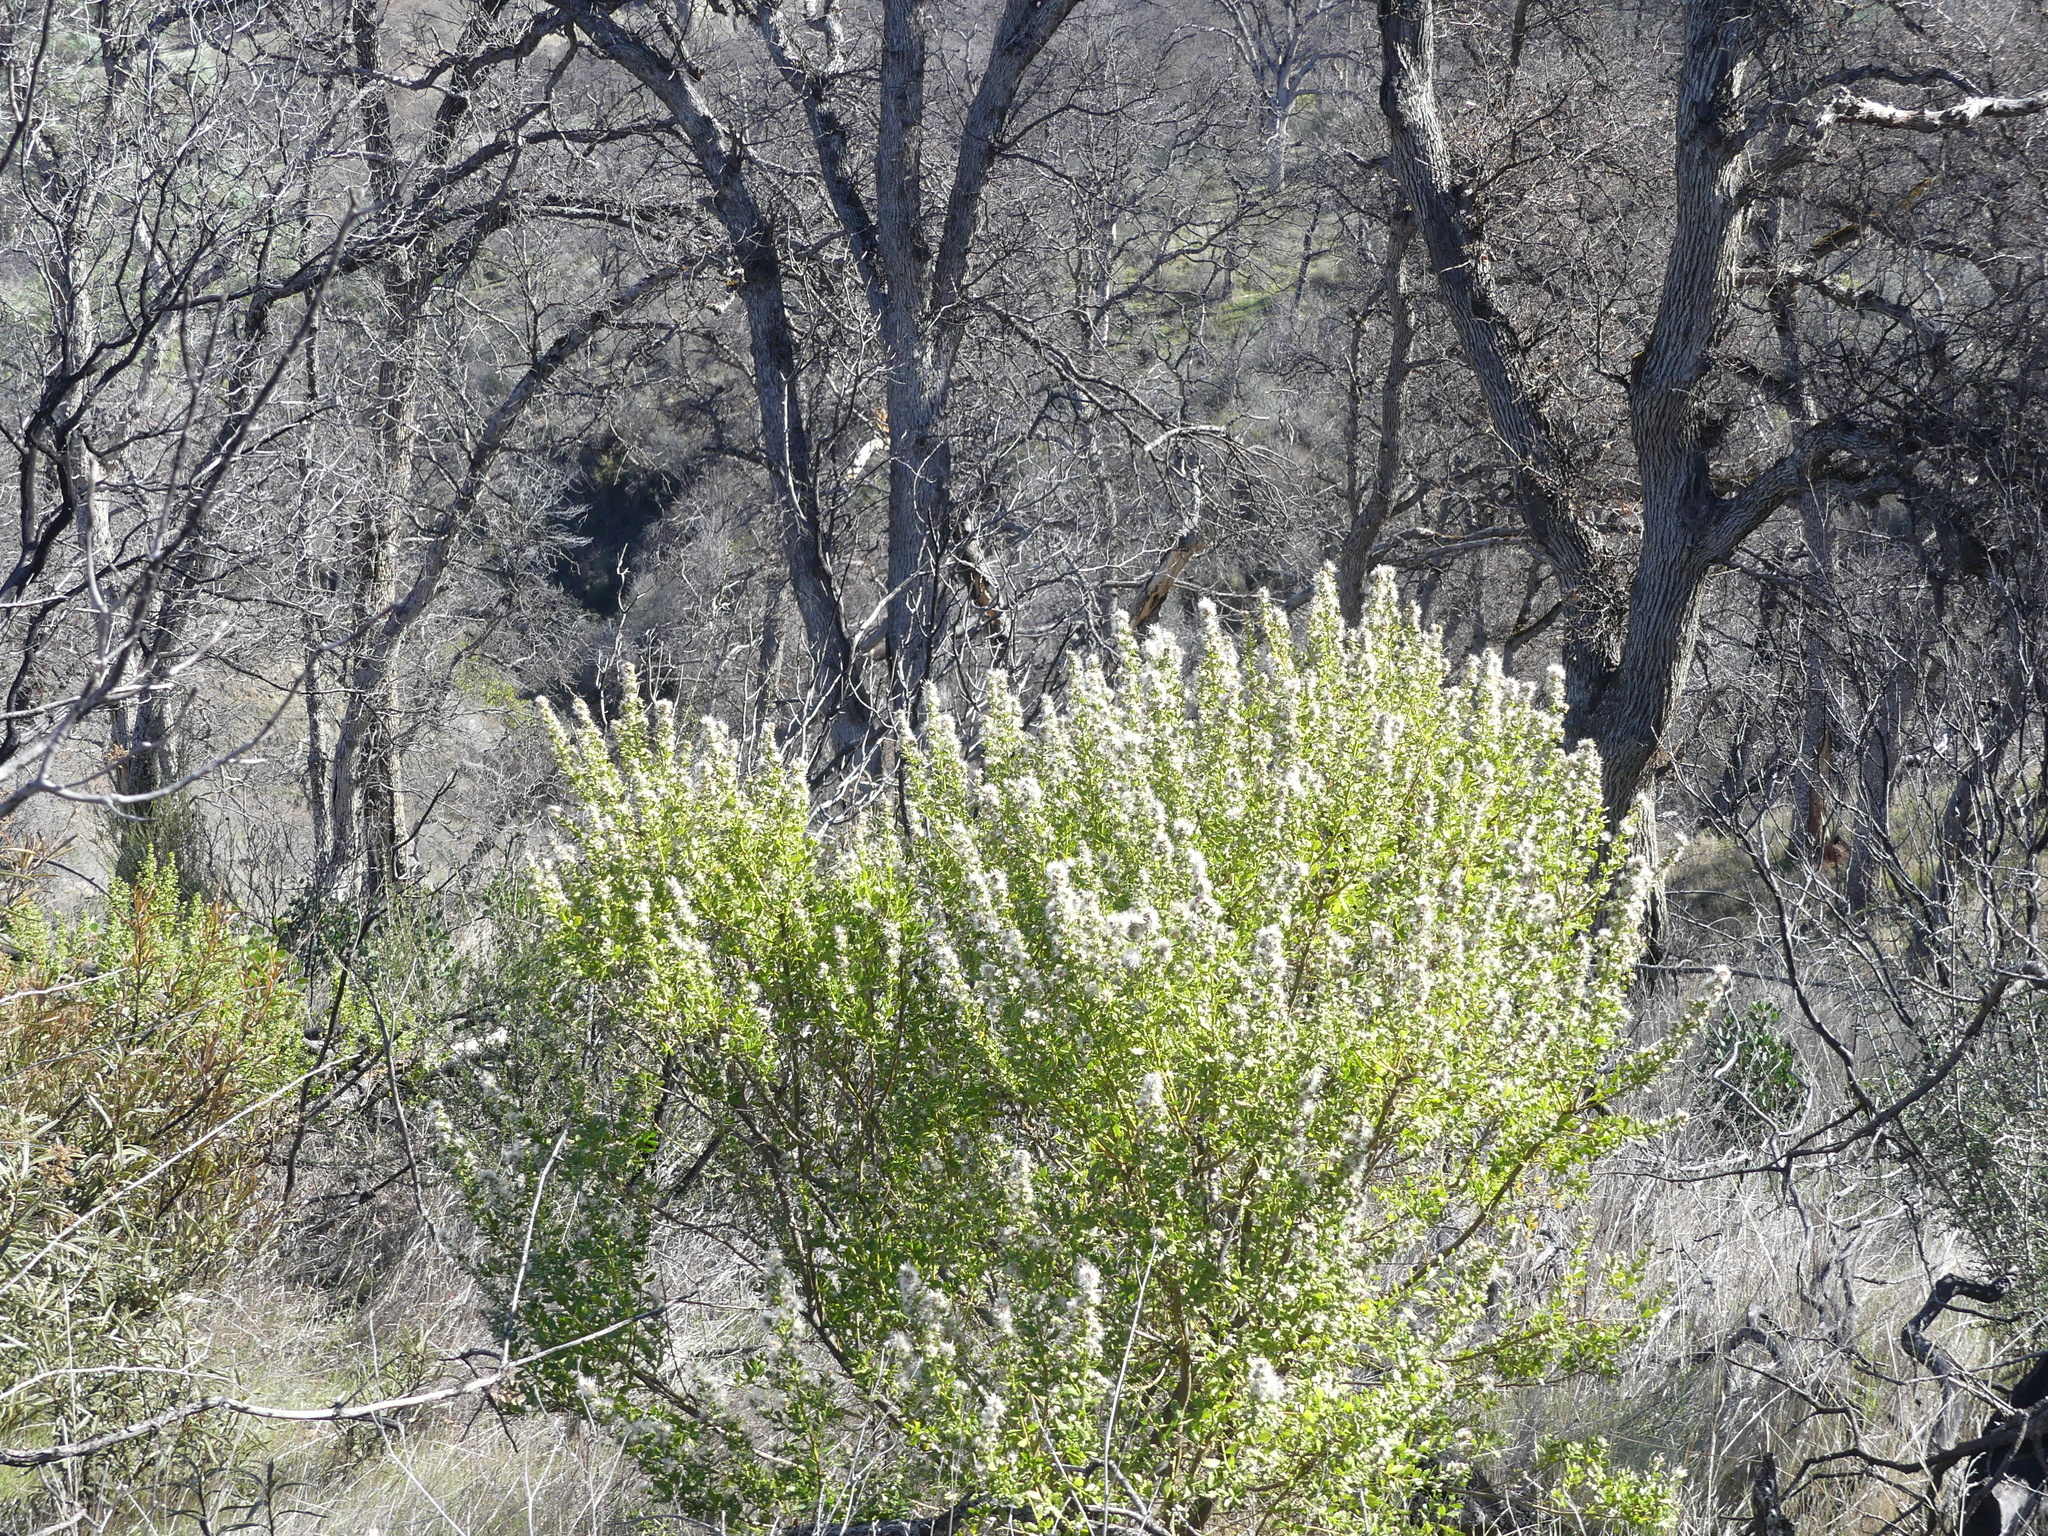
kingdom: Plantae
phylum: Tracheophyta
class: Magnoliopsida
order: Asterales
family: Asteraceae
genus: Baccharis
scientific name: Baccharis pilularis
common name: Coyotebrush
